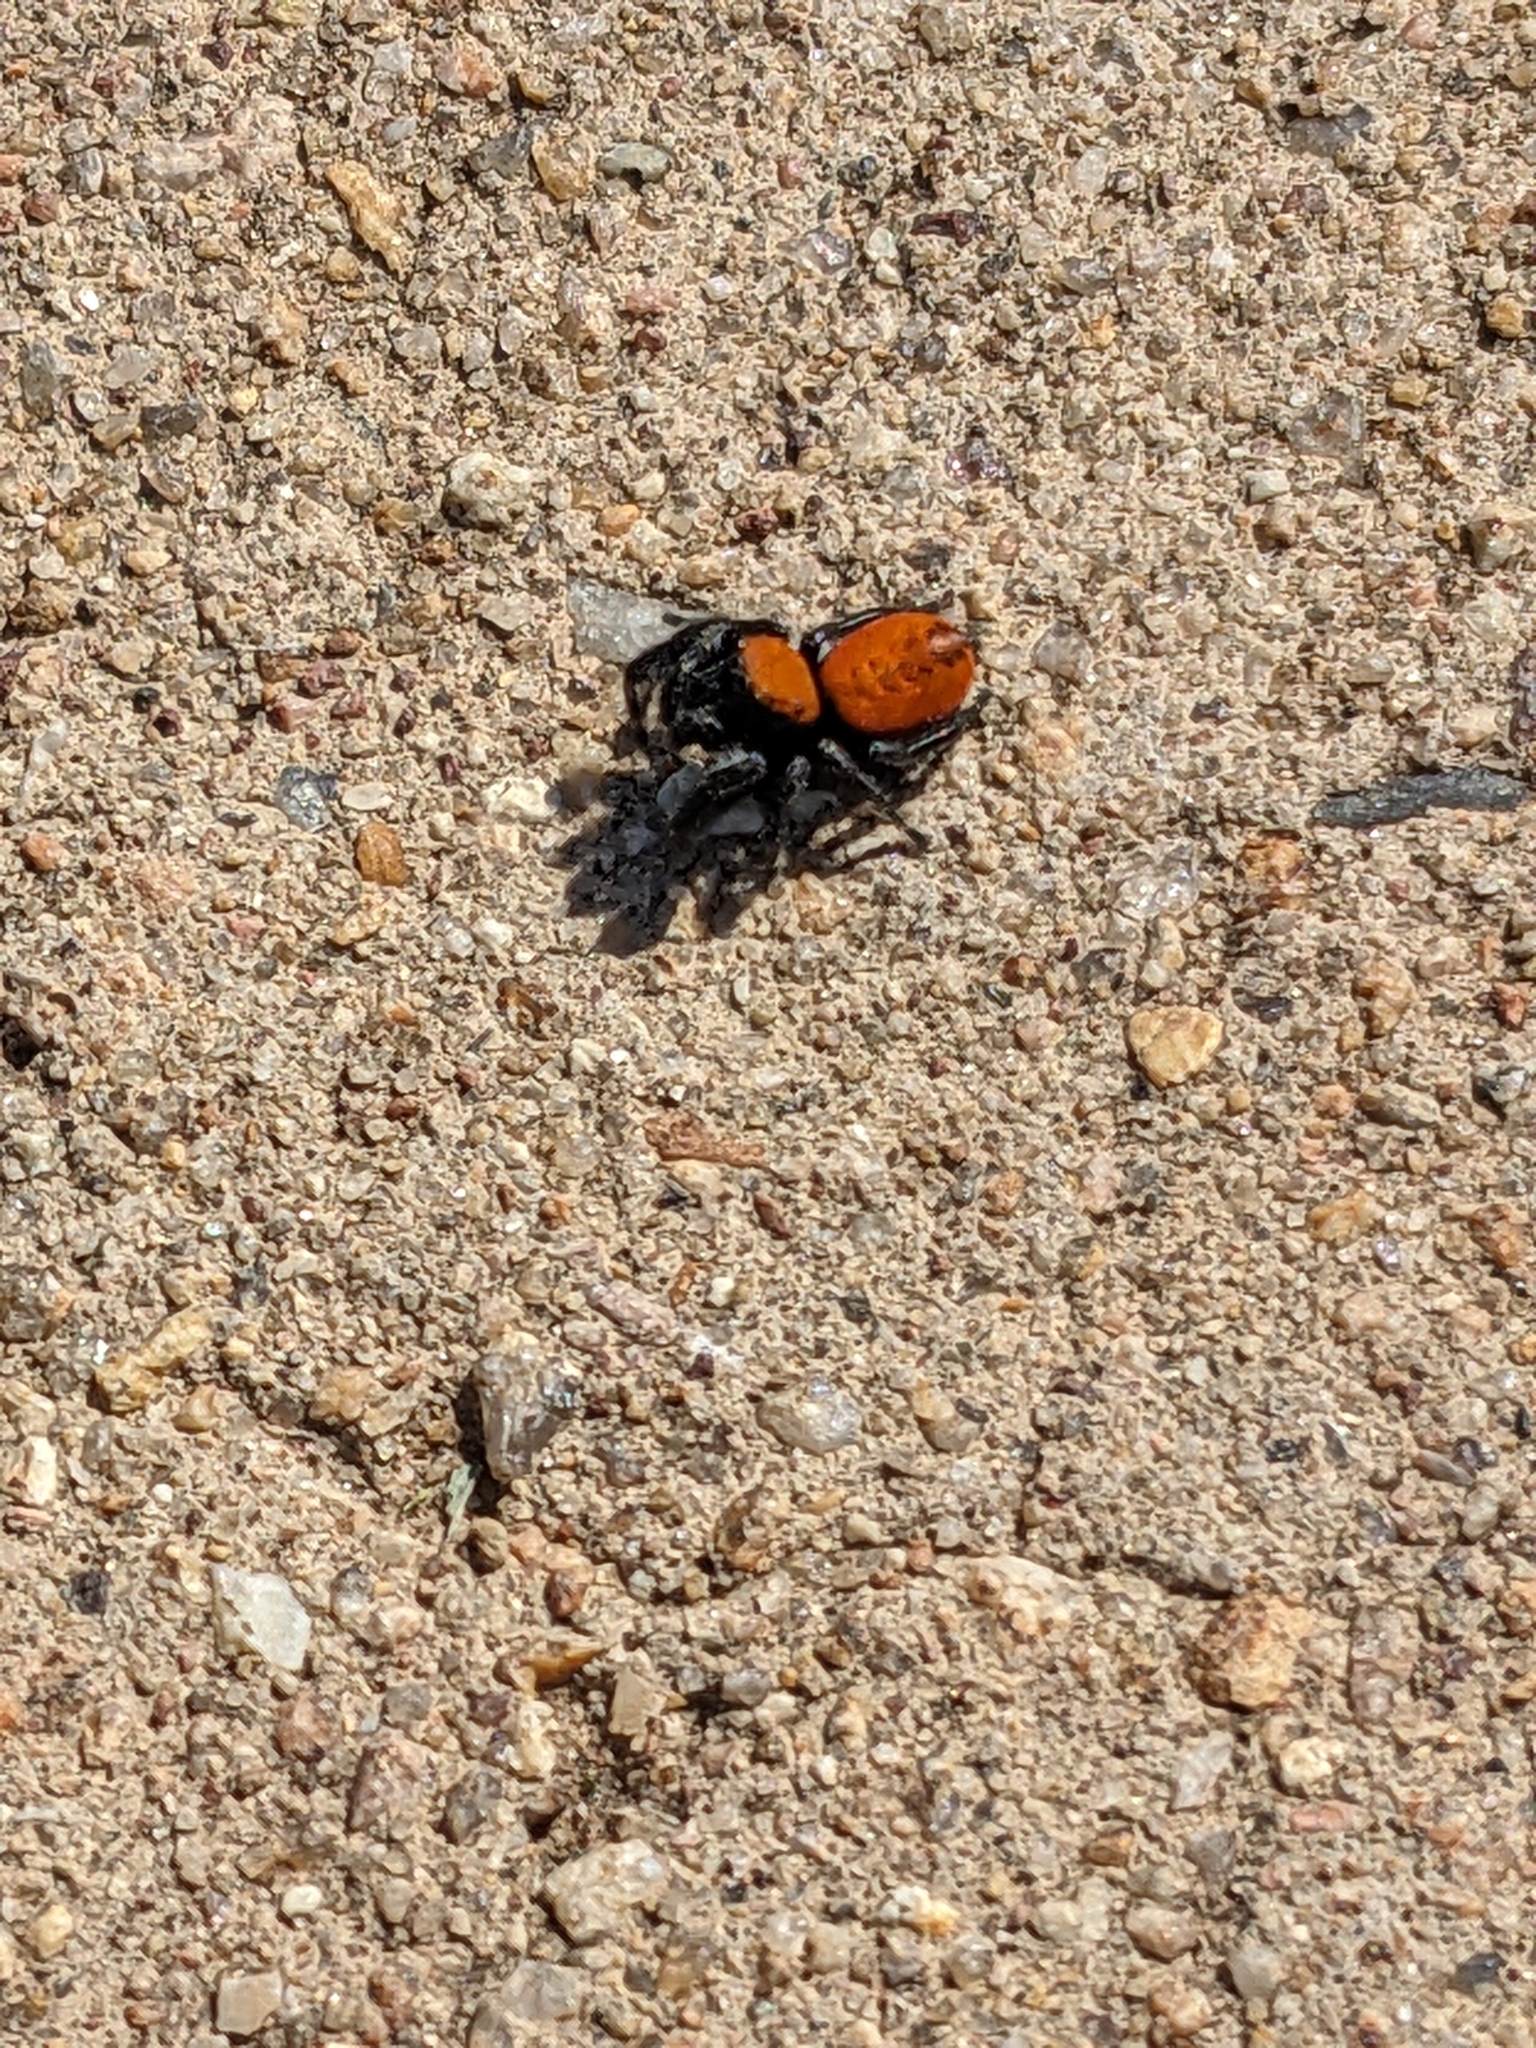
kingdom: Animalia
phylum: Arthropoda
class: Arachnida
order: Araneae
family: Salticidae
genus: Phidippus
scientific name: Phidippus apacheanus
